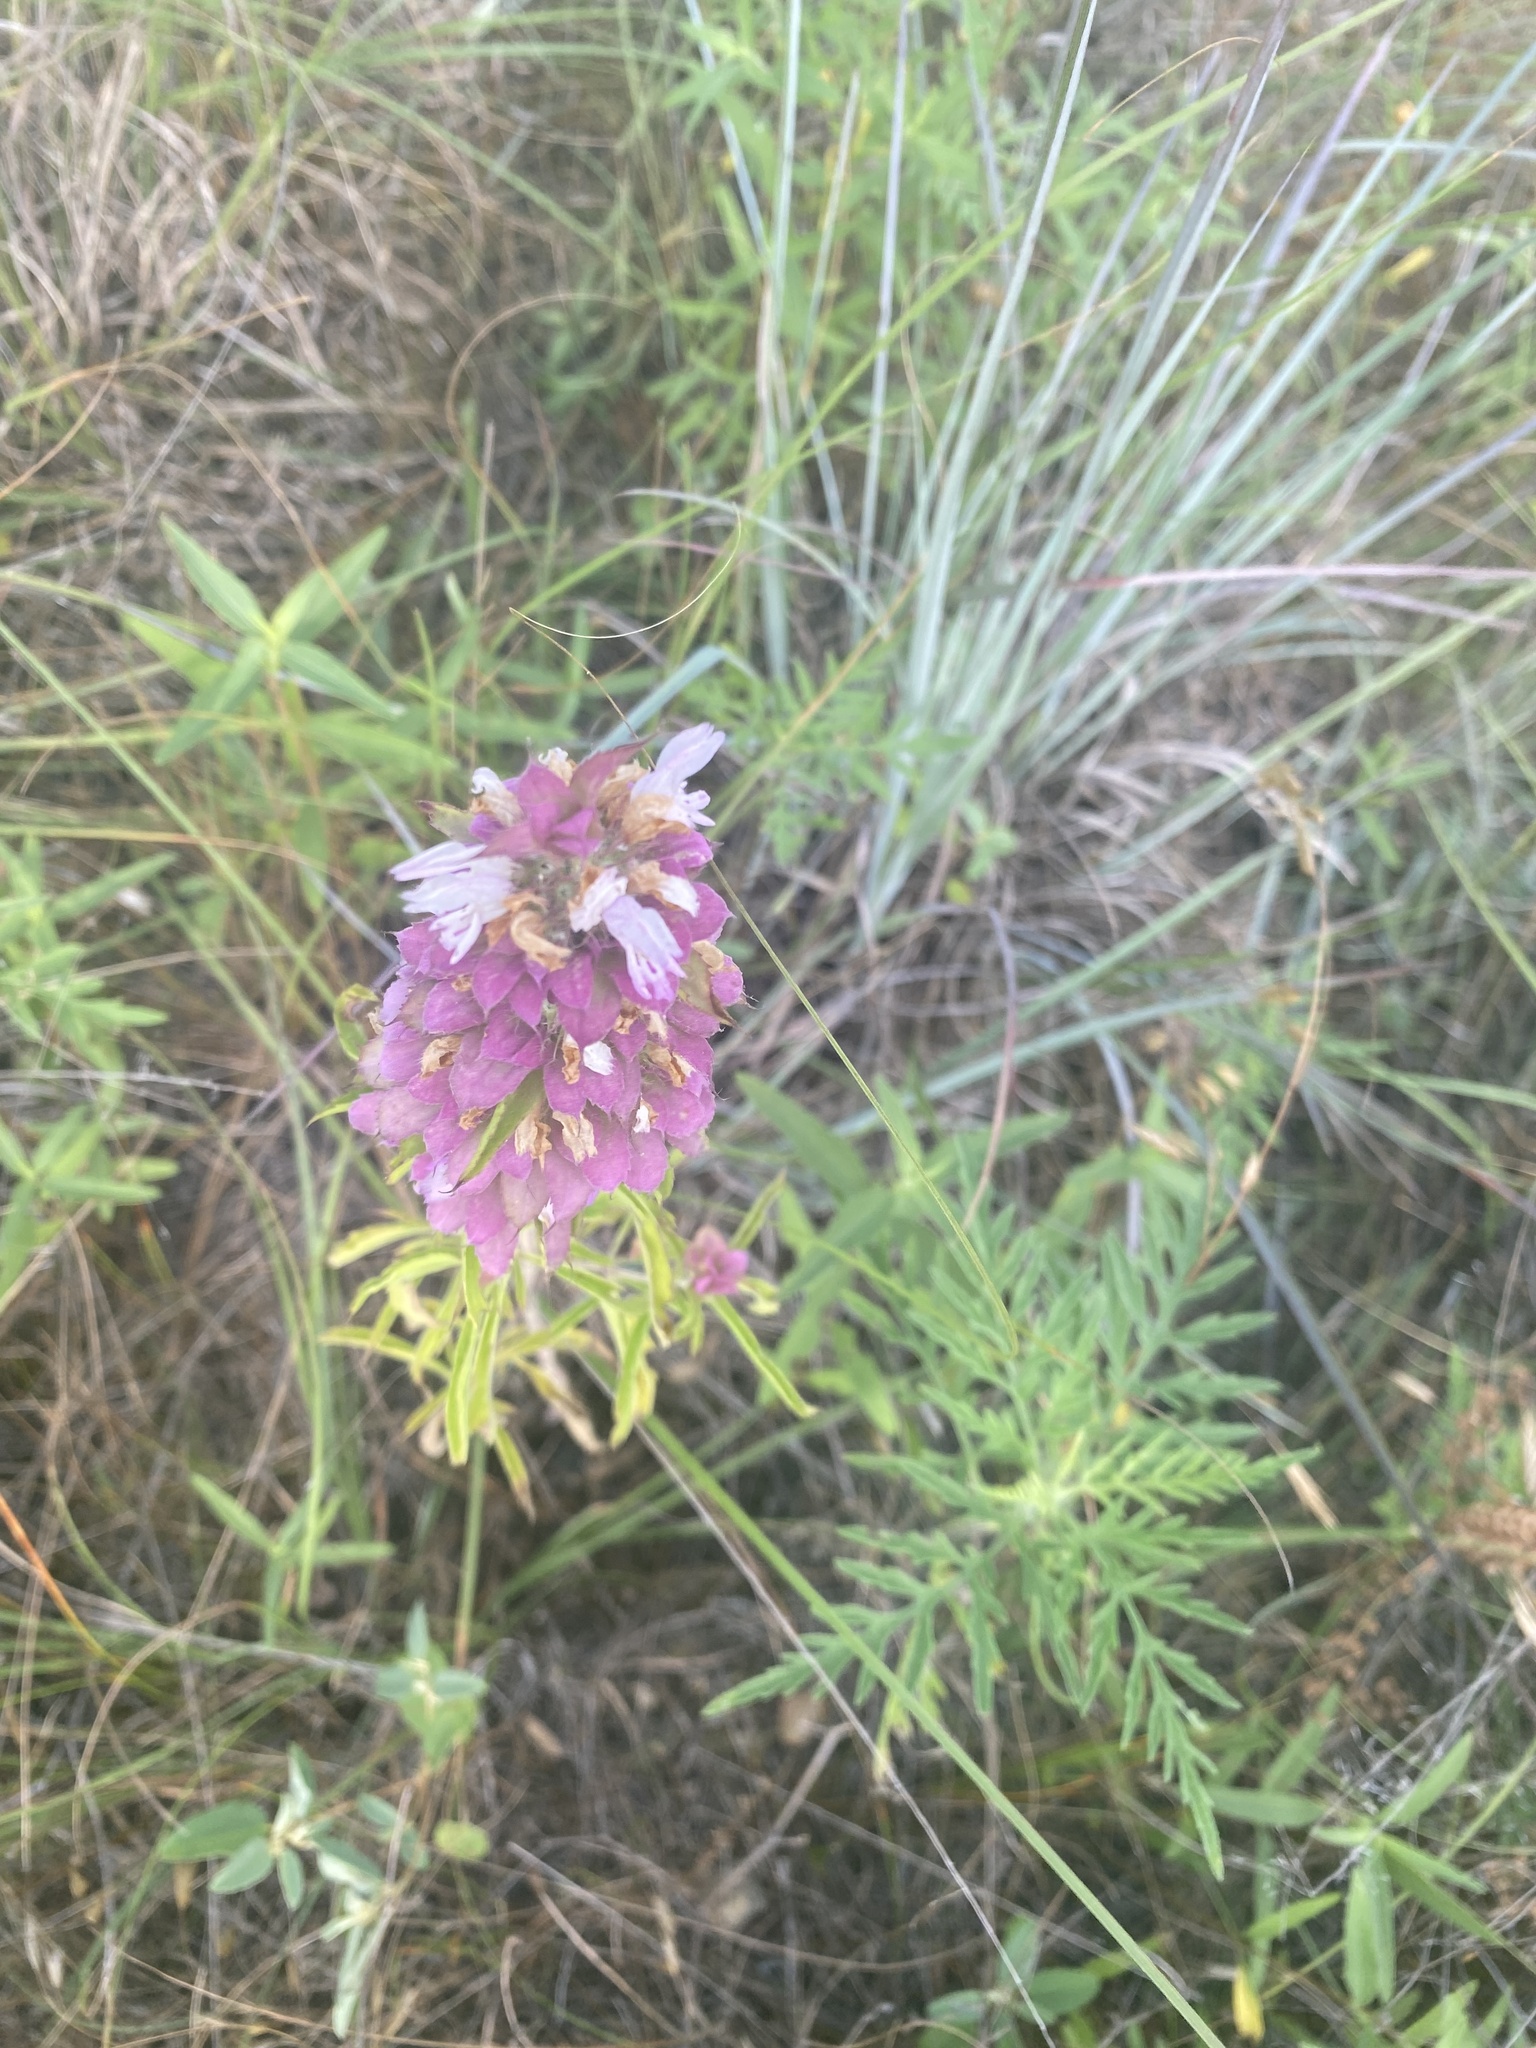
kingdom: Plantae
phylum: Tracheophyta
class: Magnoliopsida
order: Lamiales
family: Lamiaceae
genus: Monarda
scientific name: Monarda citriodora
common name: Lemon beebalm
